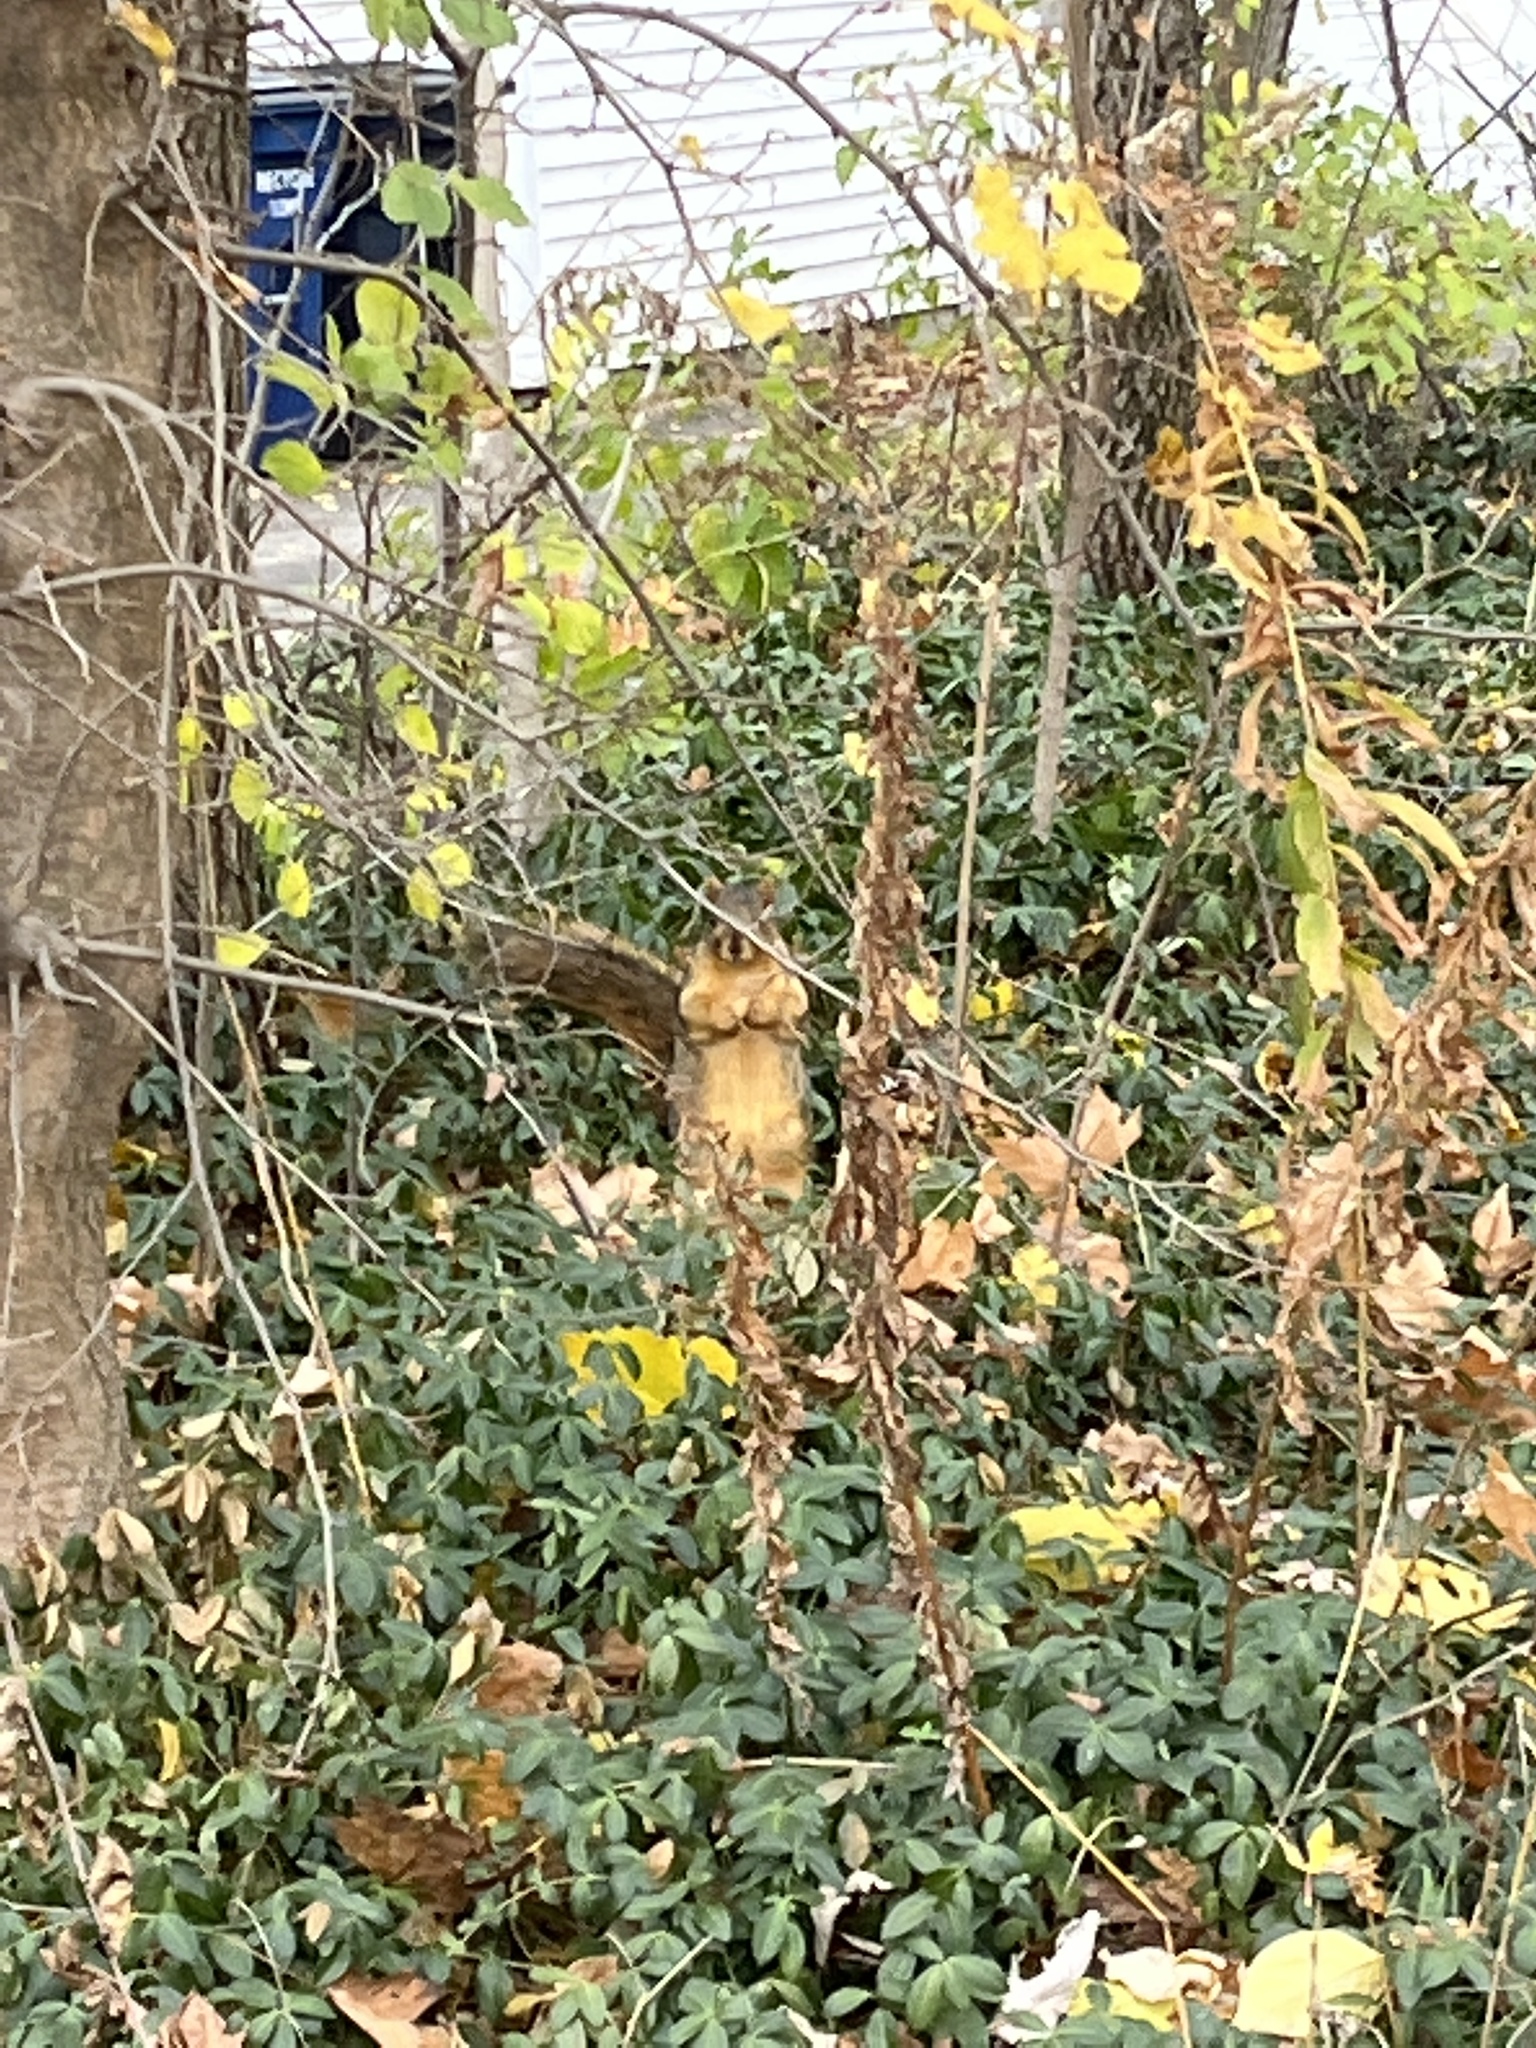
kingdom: Animalia
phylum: Chordata
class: Mammalia
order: Rodentia
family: Sciuridae
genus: Sciurus
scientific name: Sciurus niger
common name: Fox squirrel
